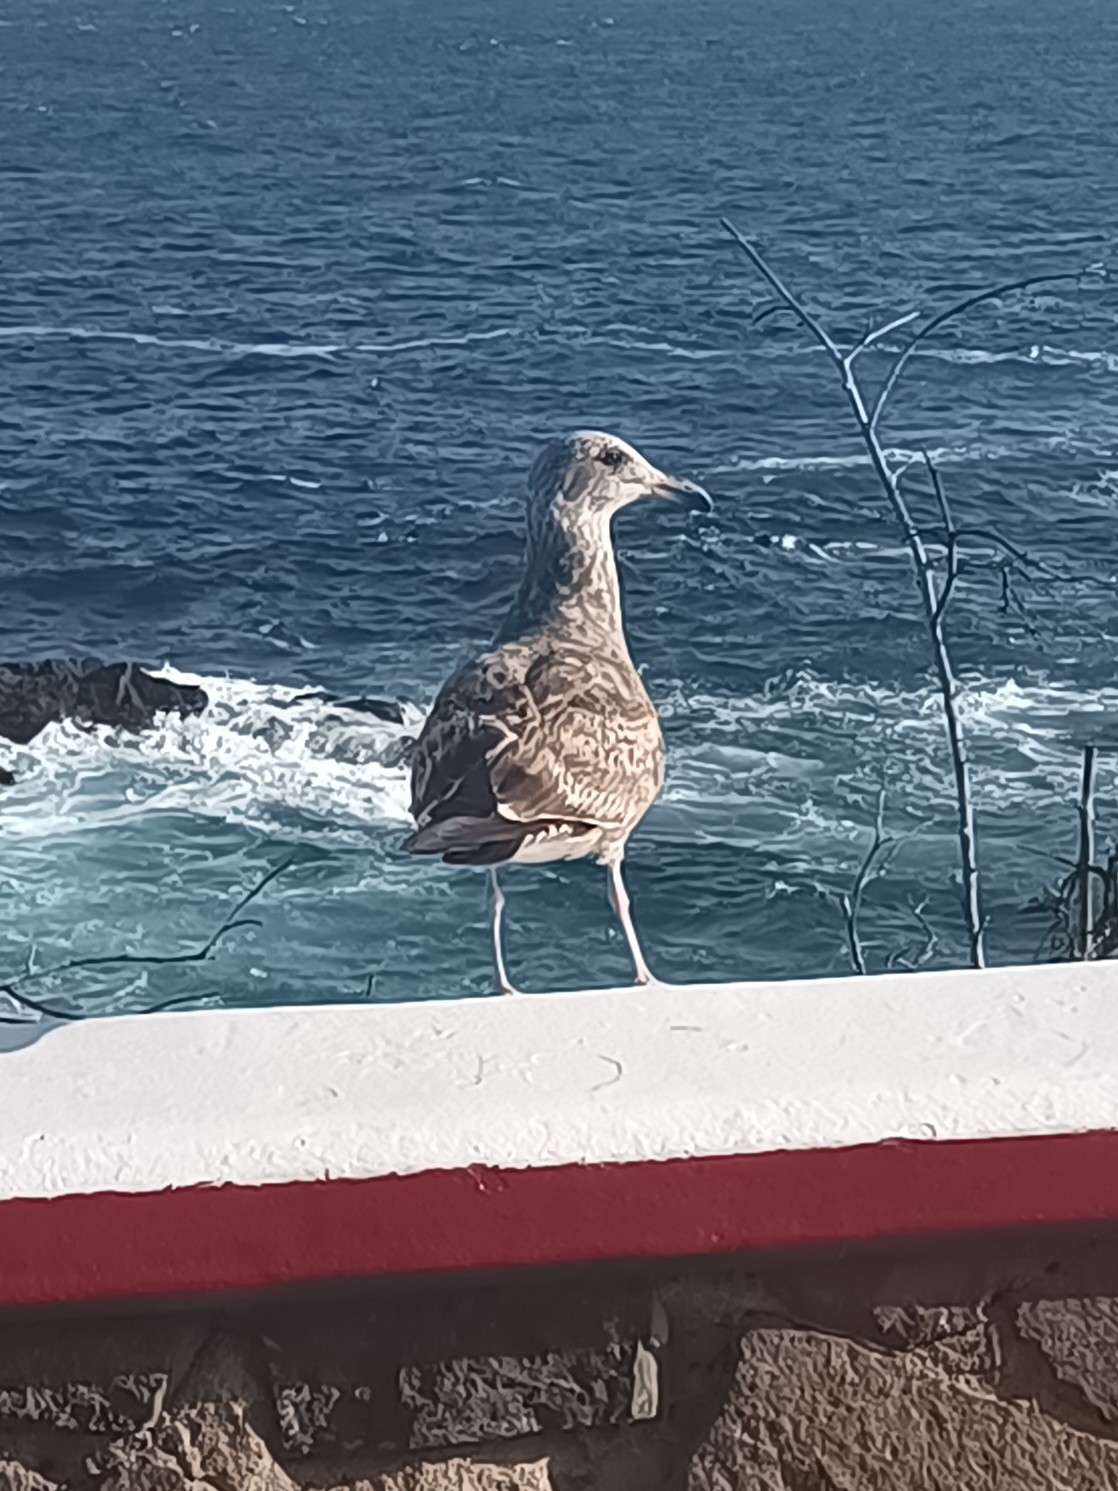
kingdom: Animalia
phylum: Chordata
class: Aves
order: Charadriiformes
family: Laridae
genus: Larus
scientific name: Larus occidentalis
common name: Western gull
